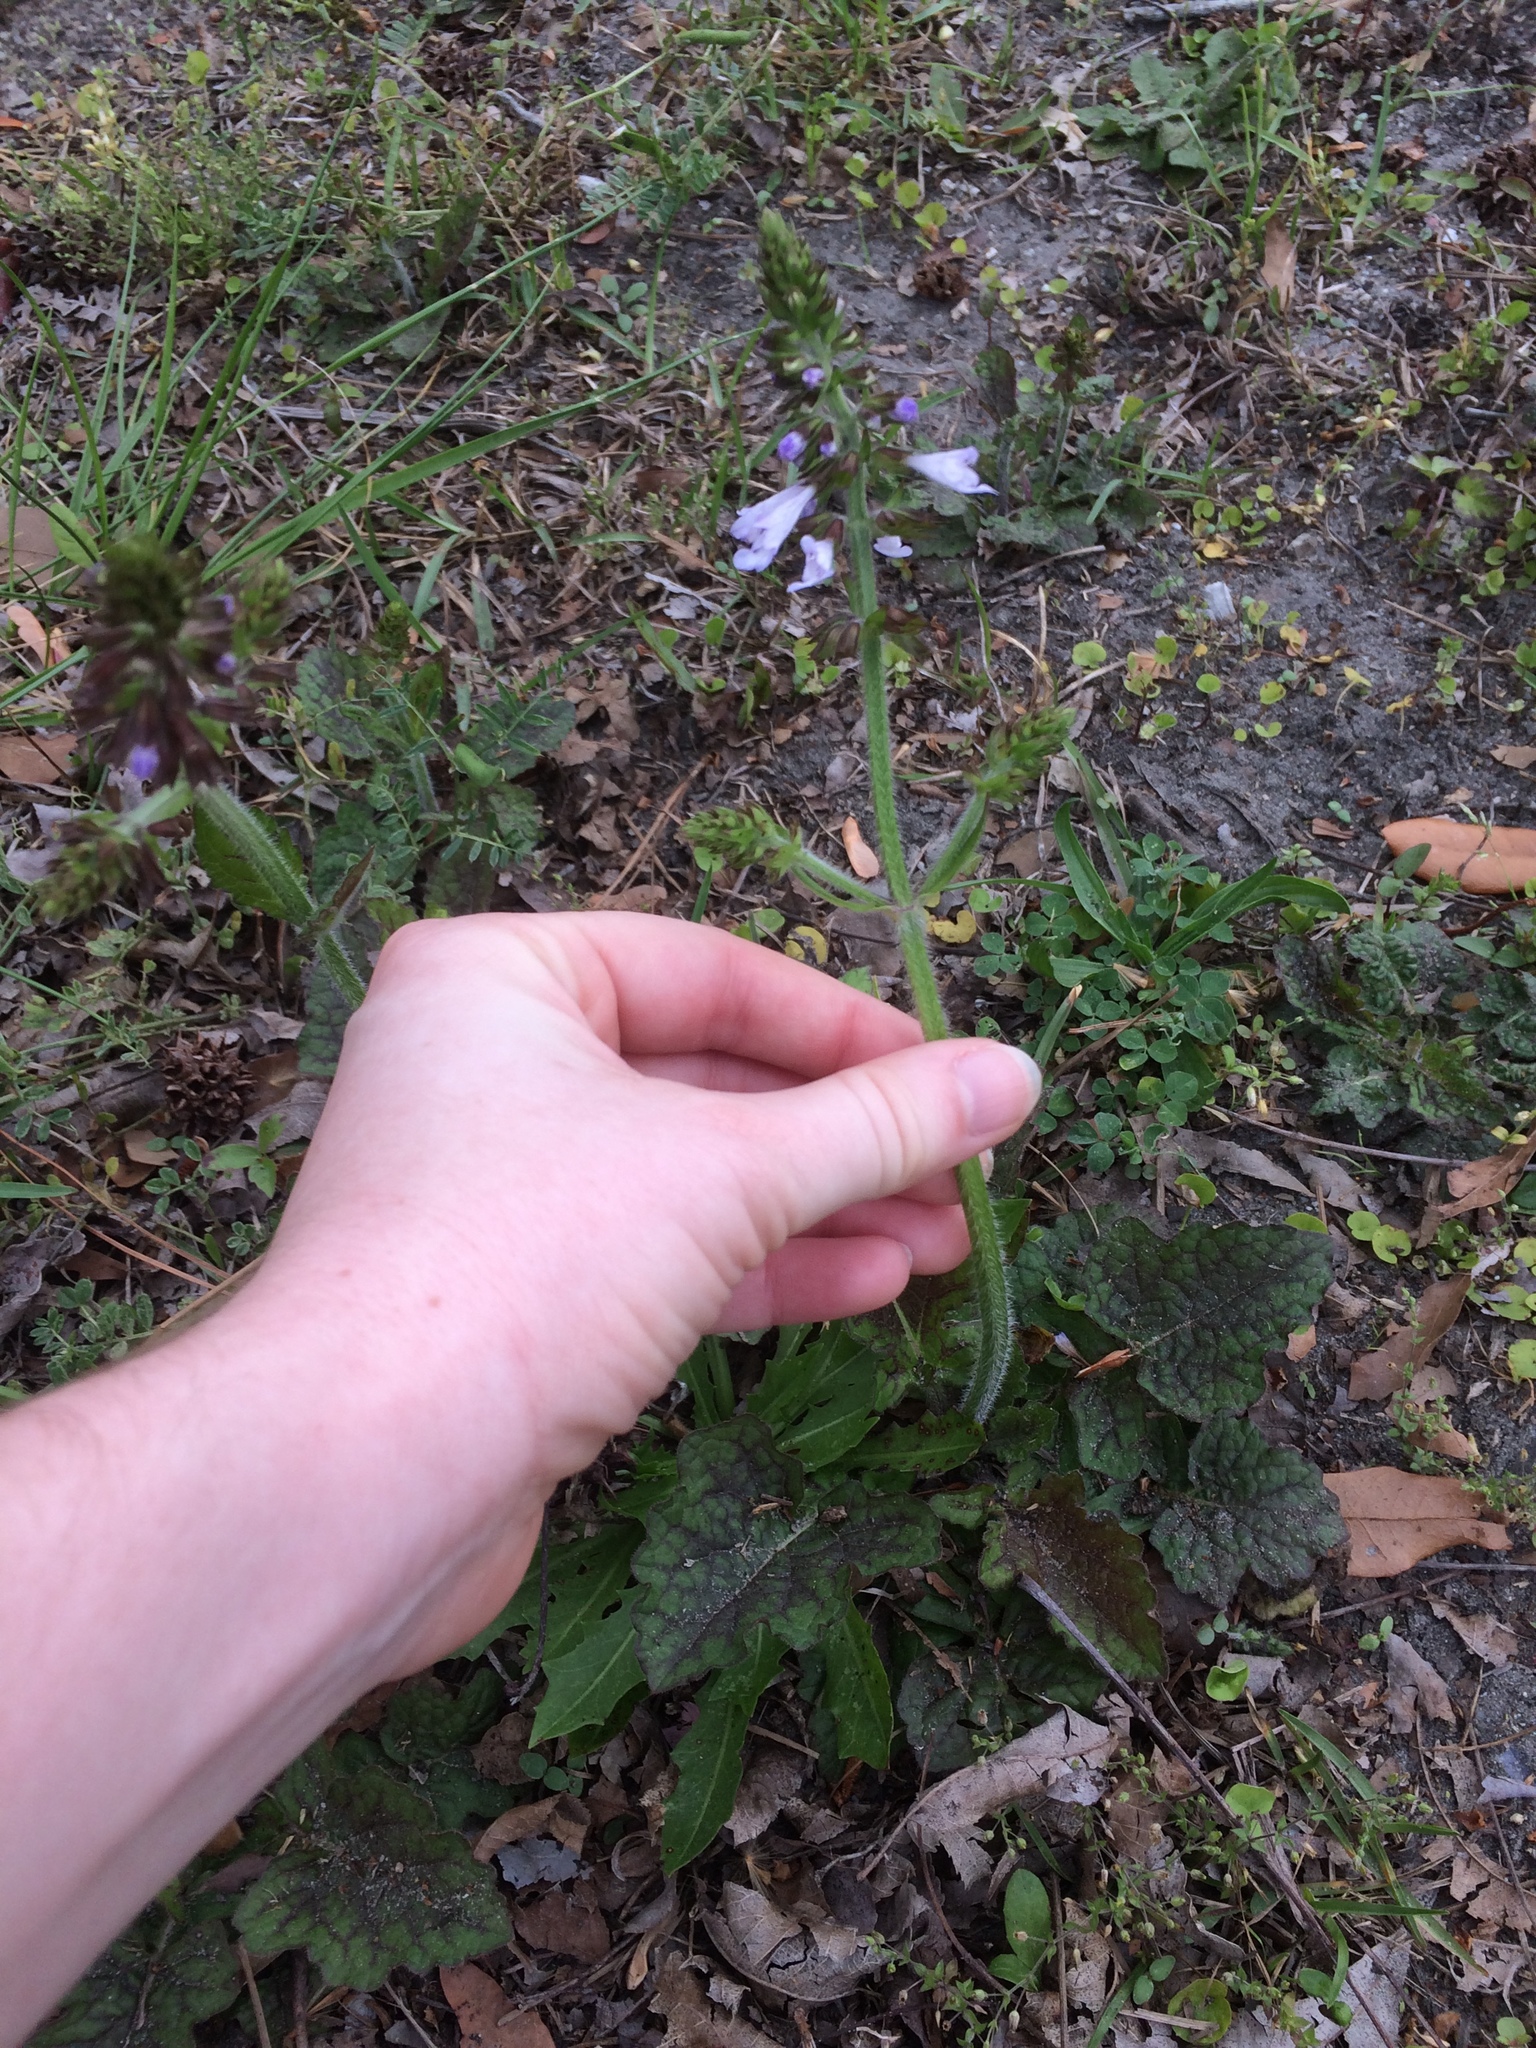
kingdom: Plantae
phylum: Tracheophyta
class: Magnoliopsida
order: Lamiales
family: Lamiaceae
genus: Salvia
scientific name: Salvia lyrata
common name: Cancerweed
